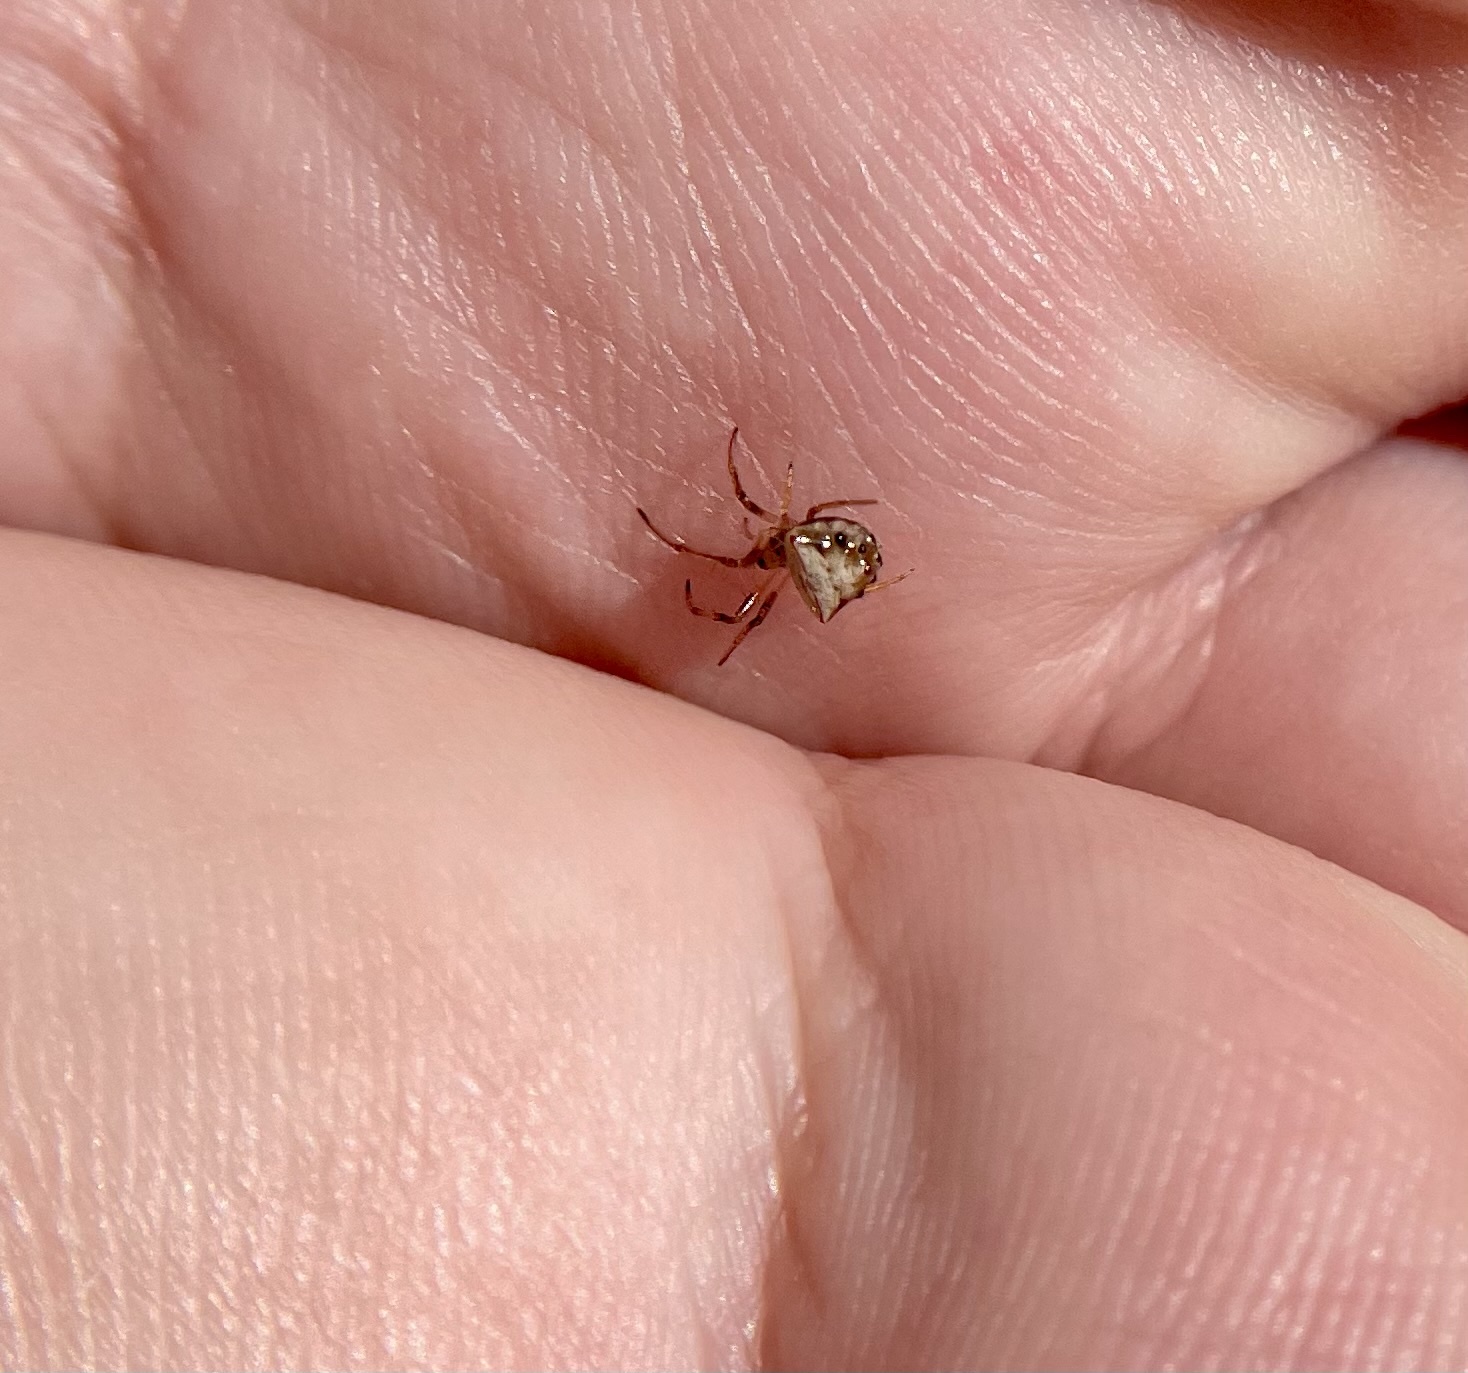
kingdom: Animalia
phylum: Arthropoda
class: Arachnida
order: Araneae
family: Araneidae
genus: Verrucosa
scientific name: Verrucosa arenata
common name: Orb weavers
